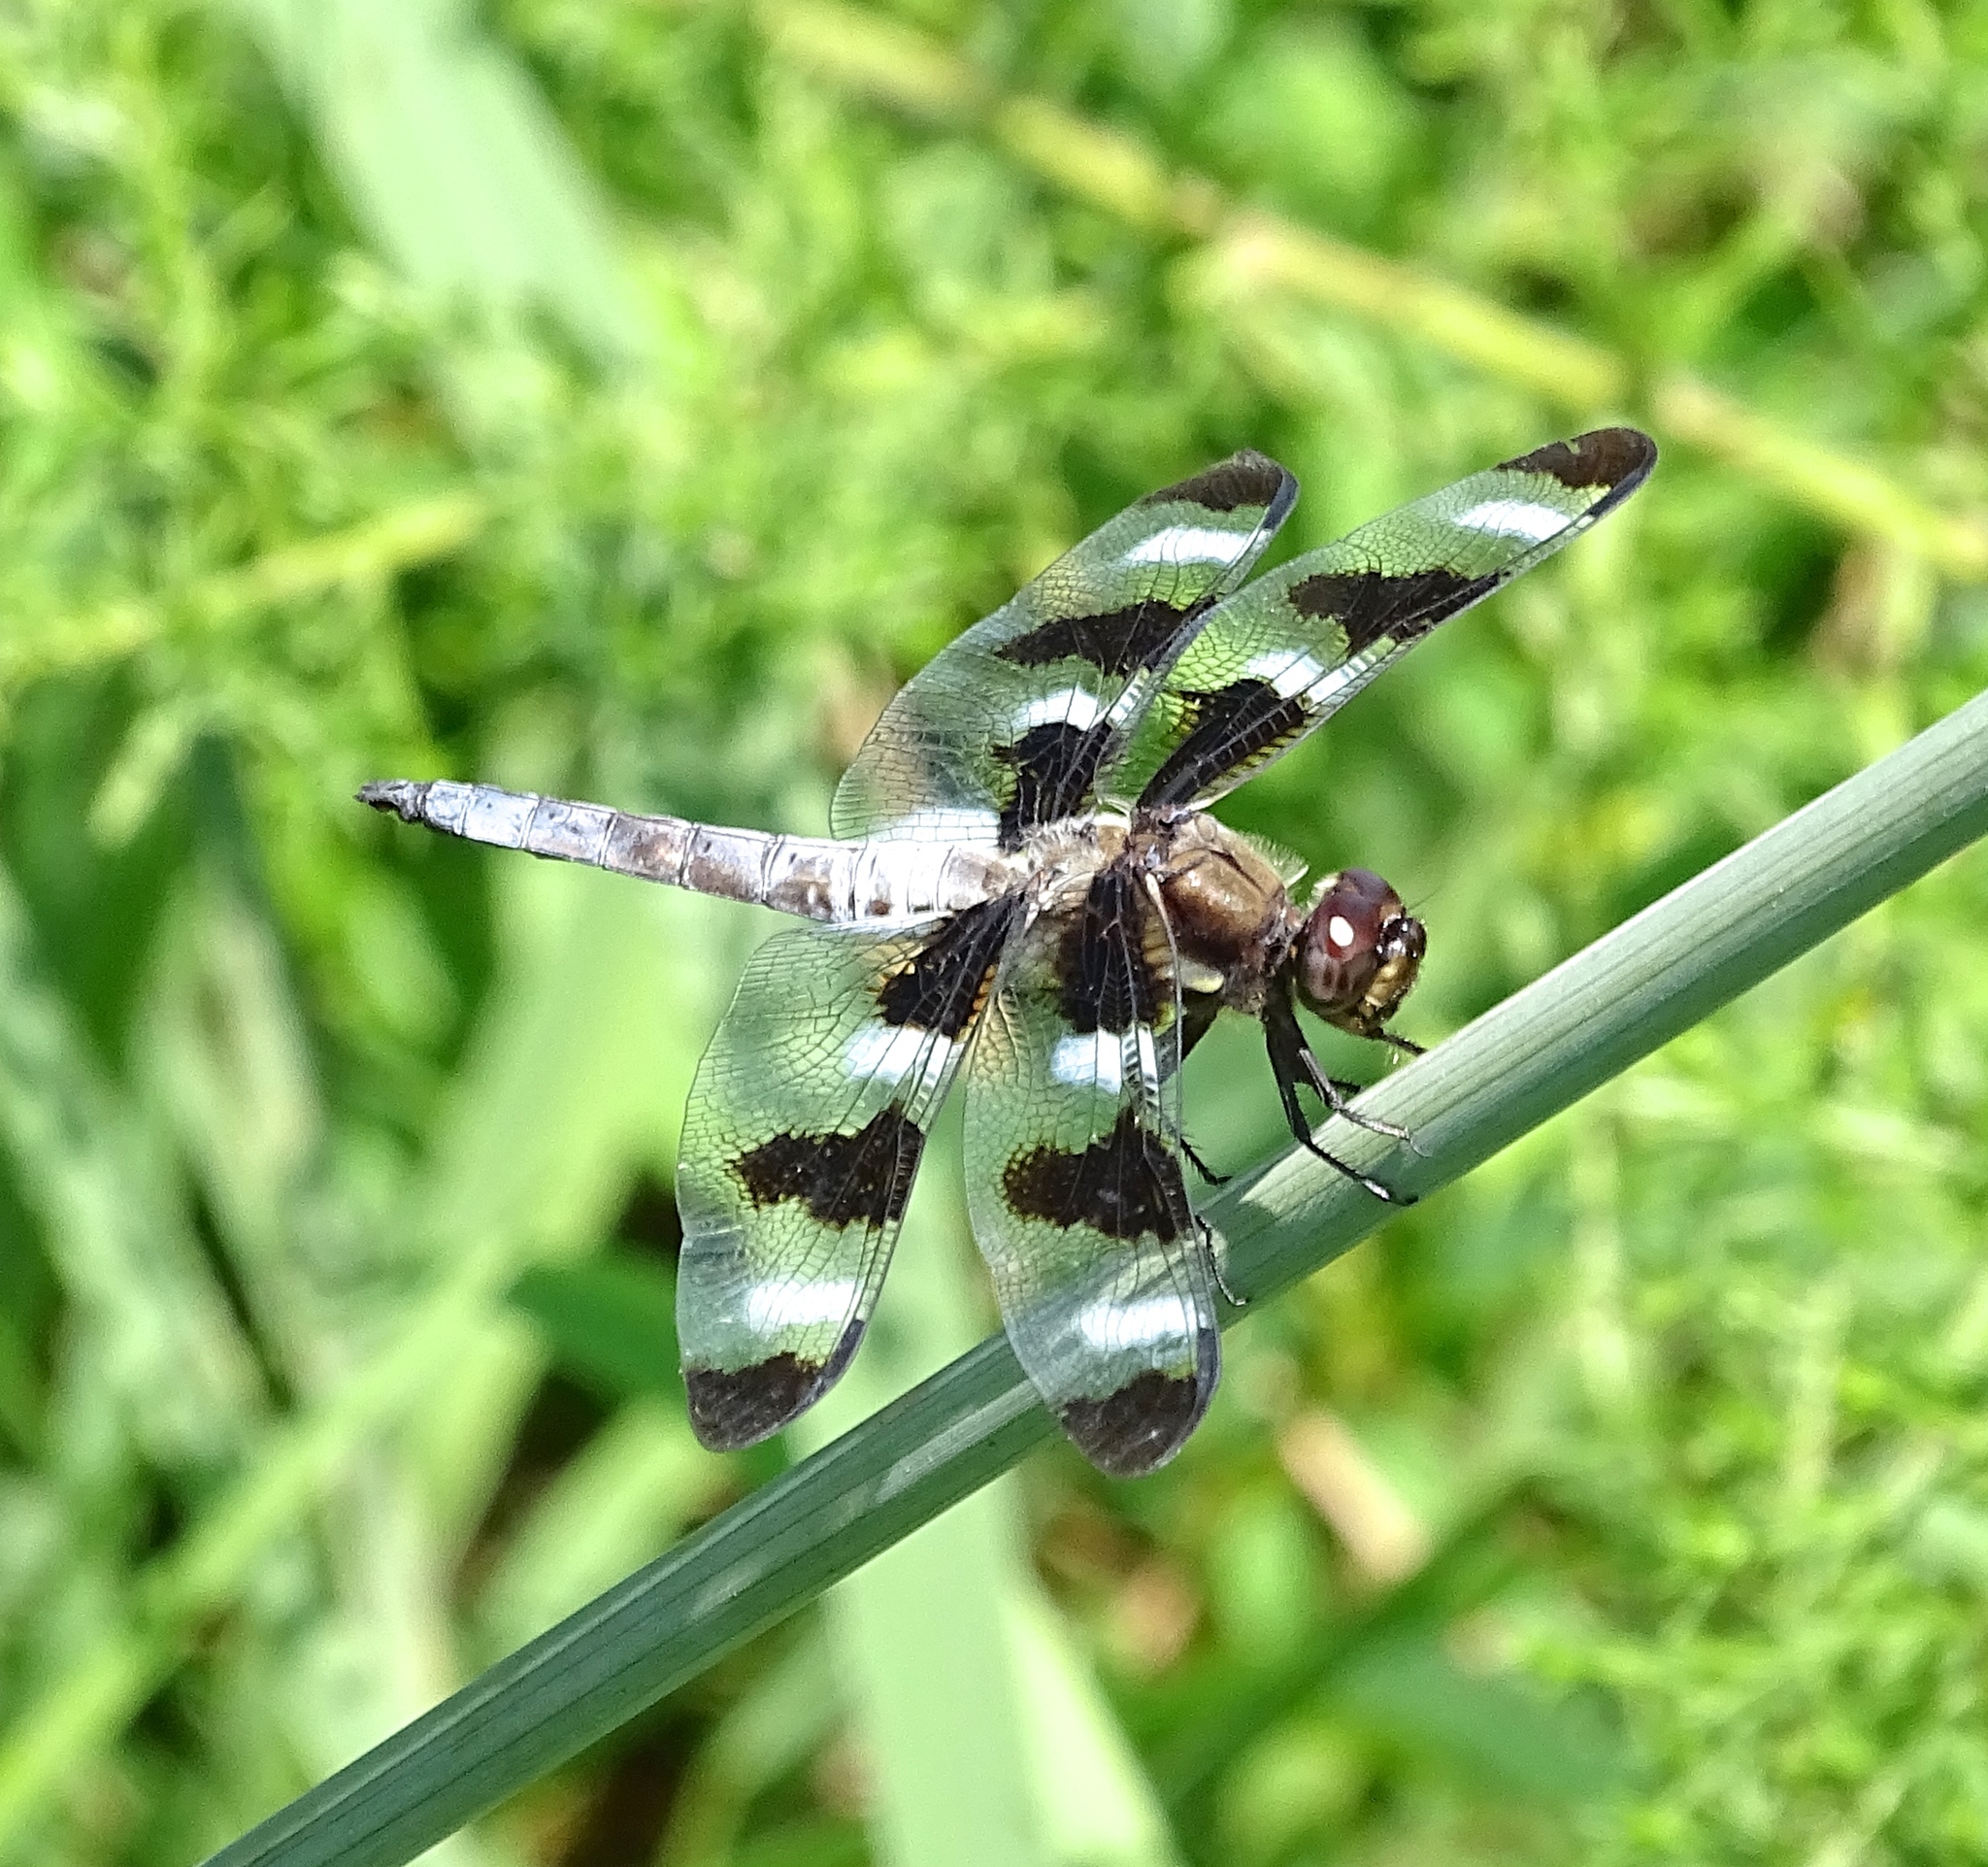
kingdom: Animalia
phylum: Arthropoda
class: Insecta
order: Odonata
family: Libellulidae
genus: Libellula
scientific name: Libellula pulchella
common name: Twelve-spotted skimmer
